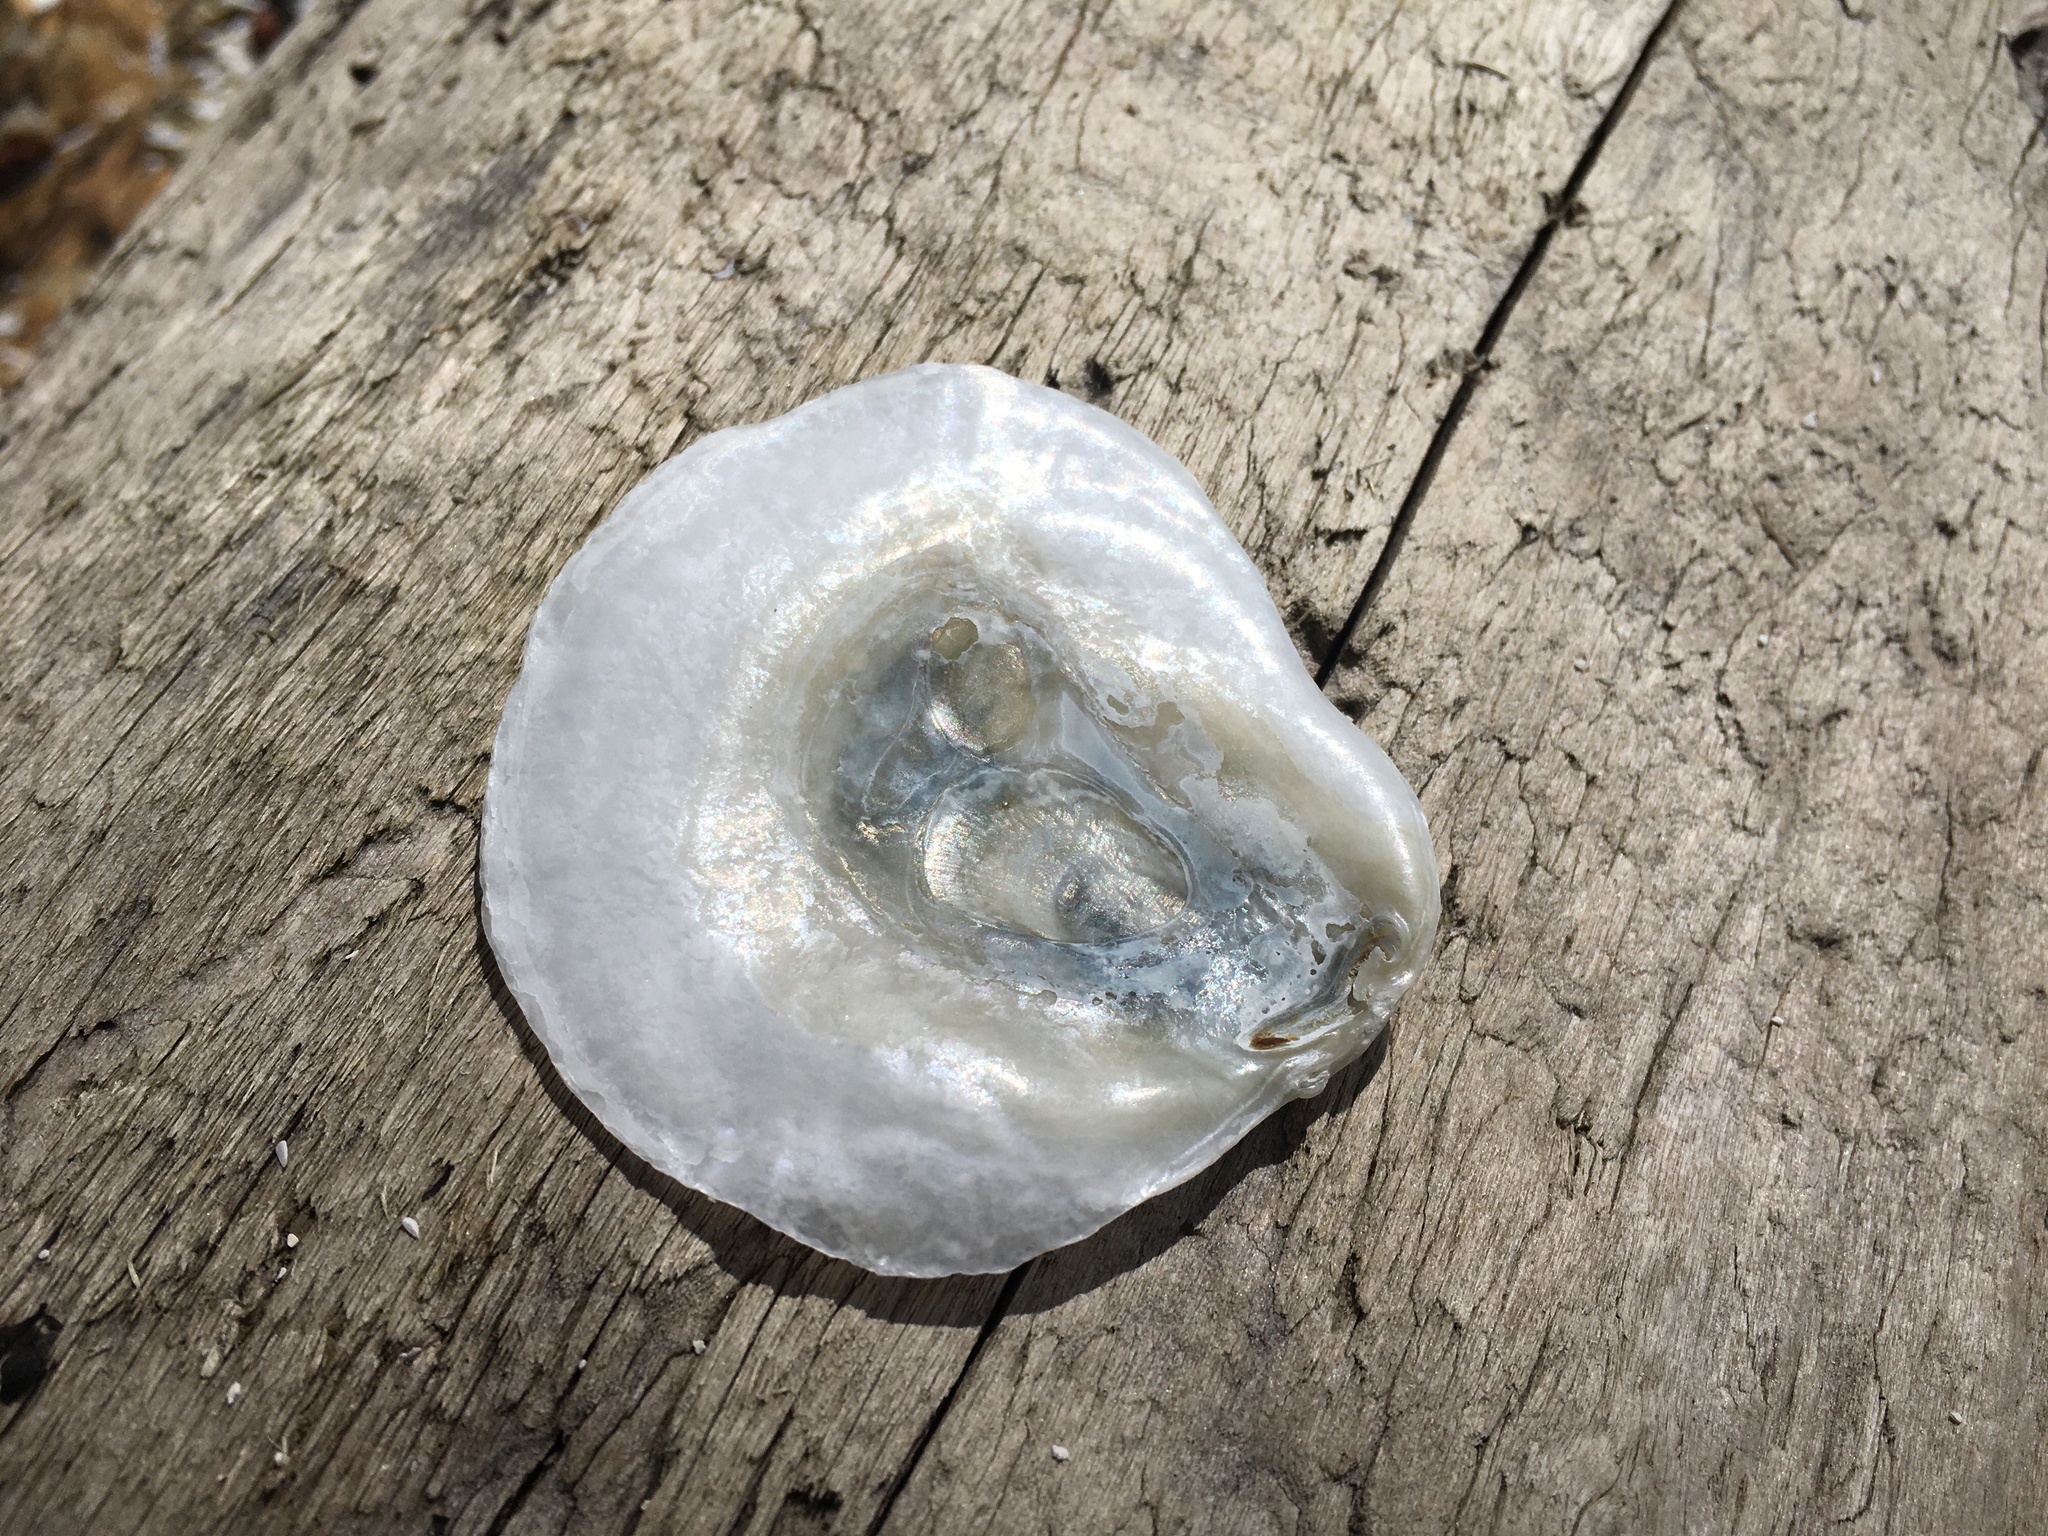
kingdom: Animalia
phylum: Mollusca
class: Bivalvia
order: Pectinida
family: Anomiidae
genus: Pododesmus
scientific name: Pododesmus macrochisma
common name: Alaska jingle
